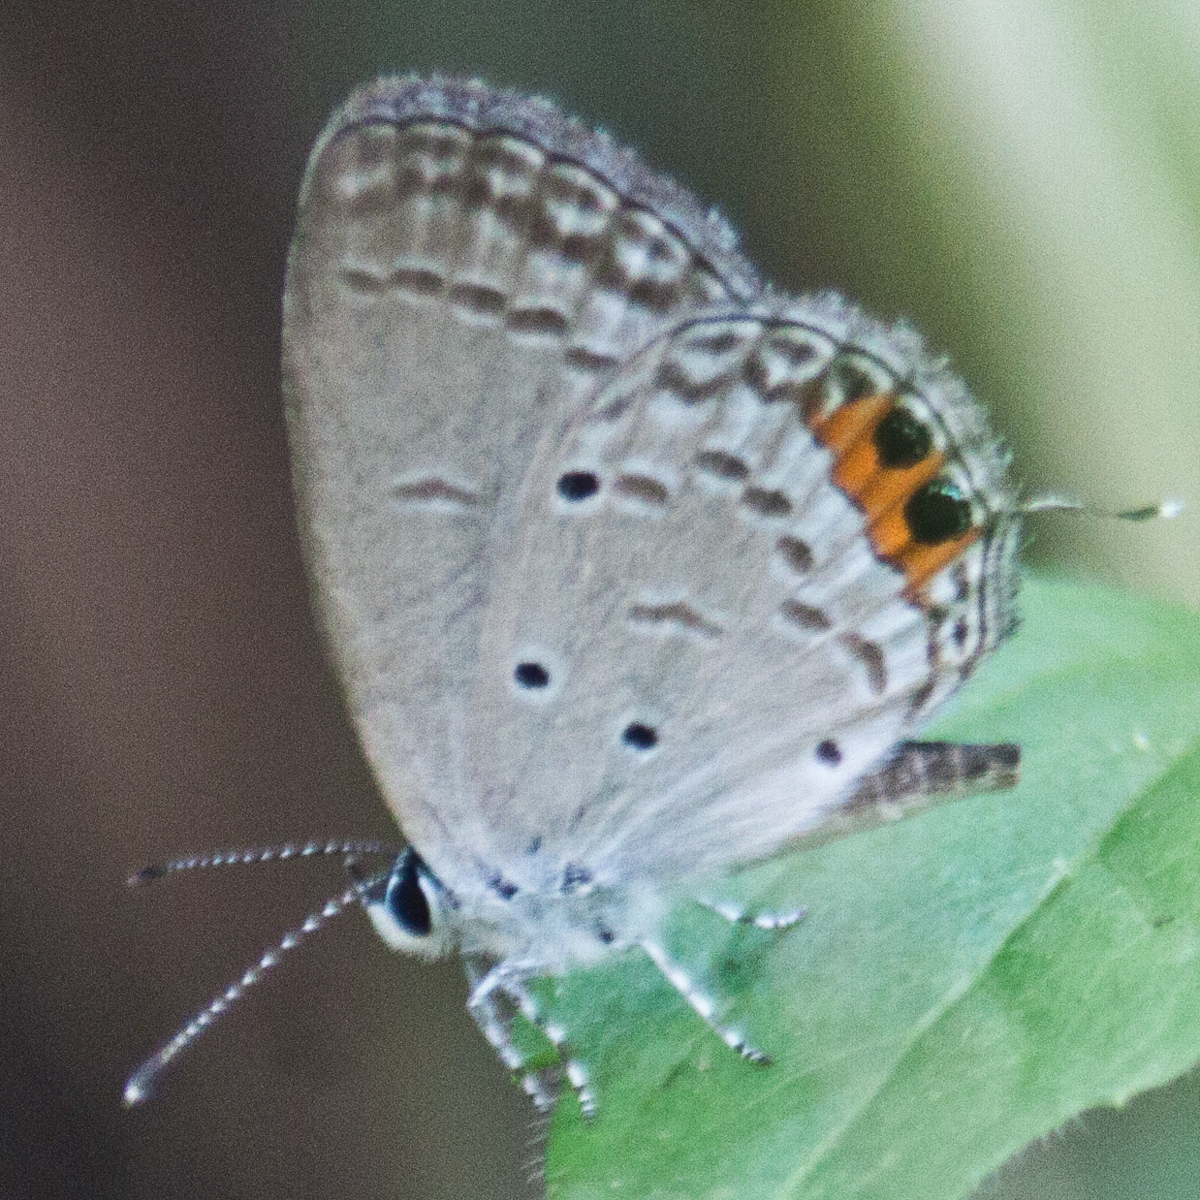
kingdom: Animalia
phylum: Arthropoda
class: Insecta
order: Lepidoptera
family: Lycaenidae
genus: Everes
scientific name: Everes lacturnus
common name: Orange-tipped pea-blue
